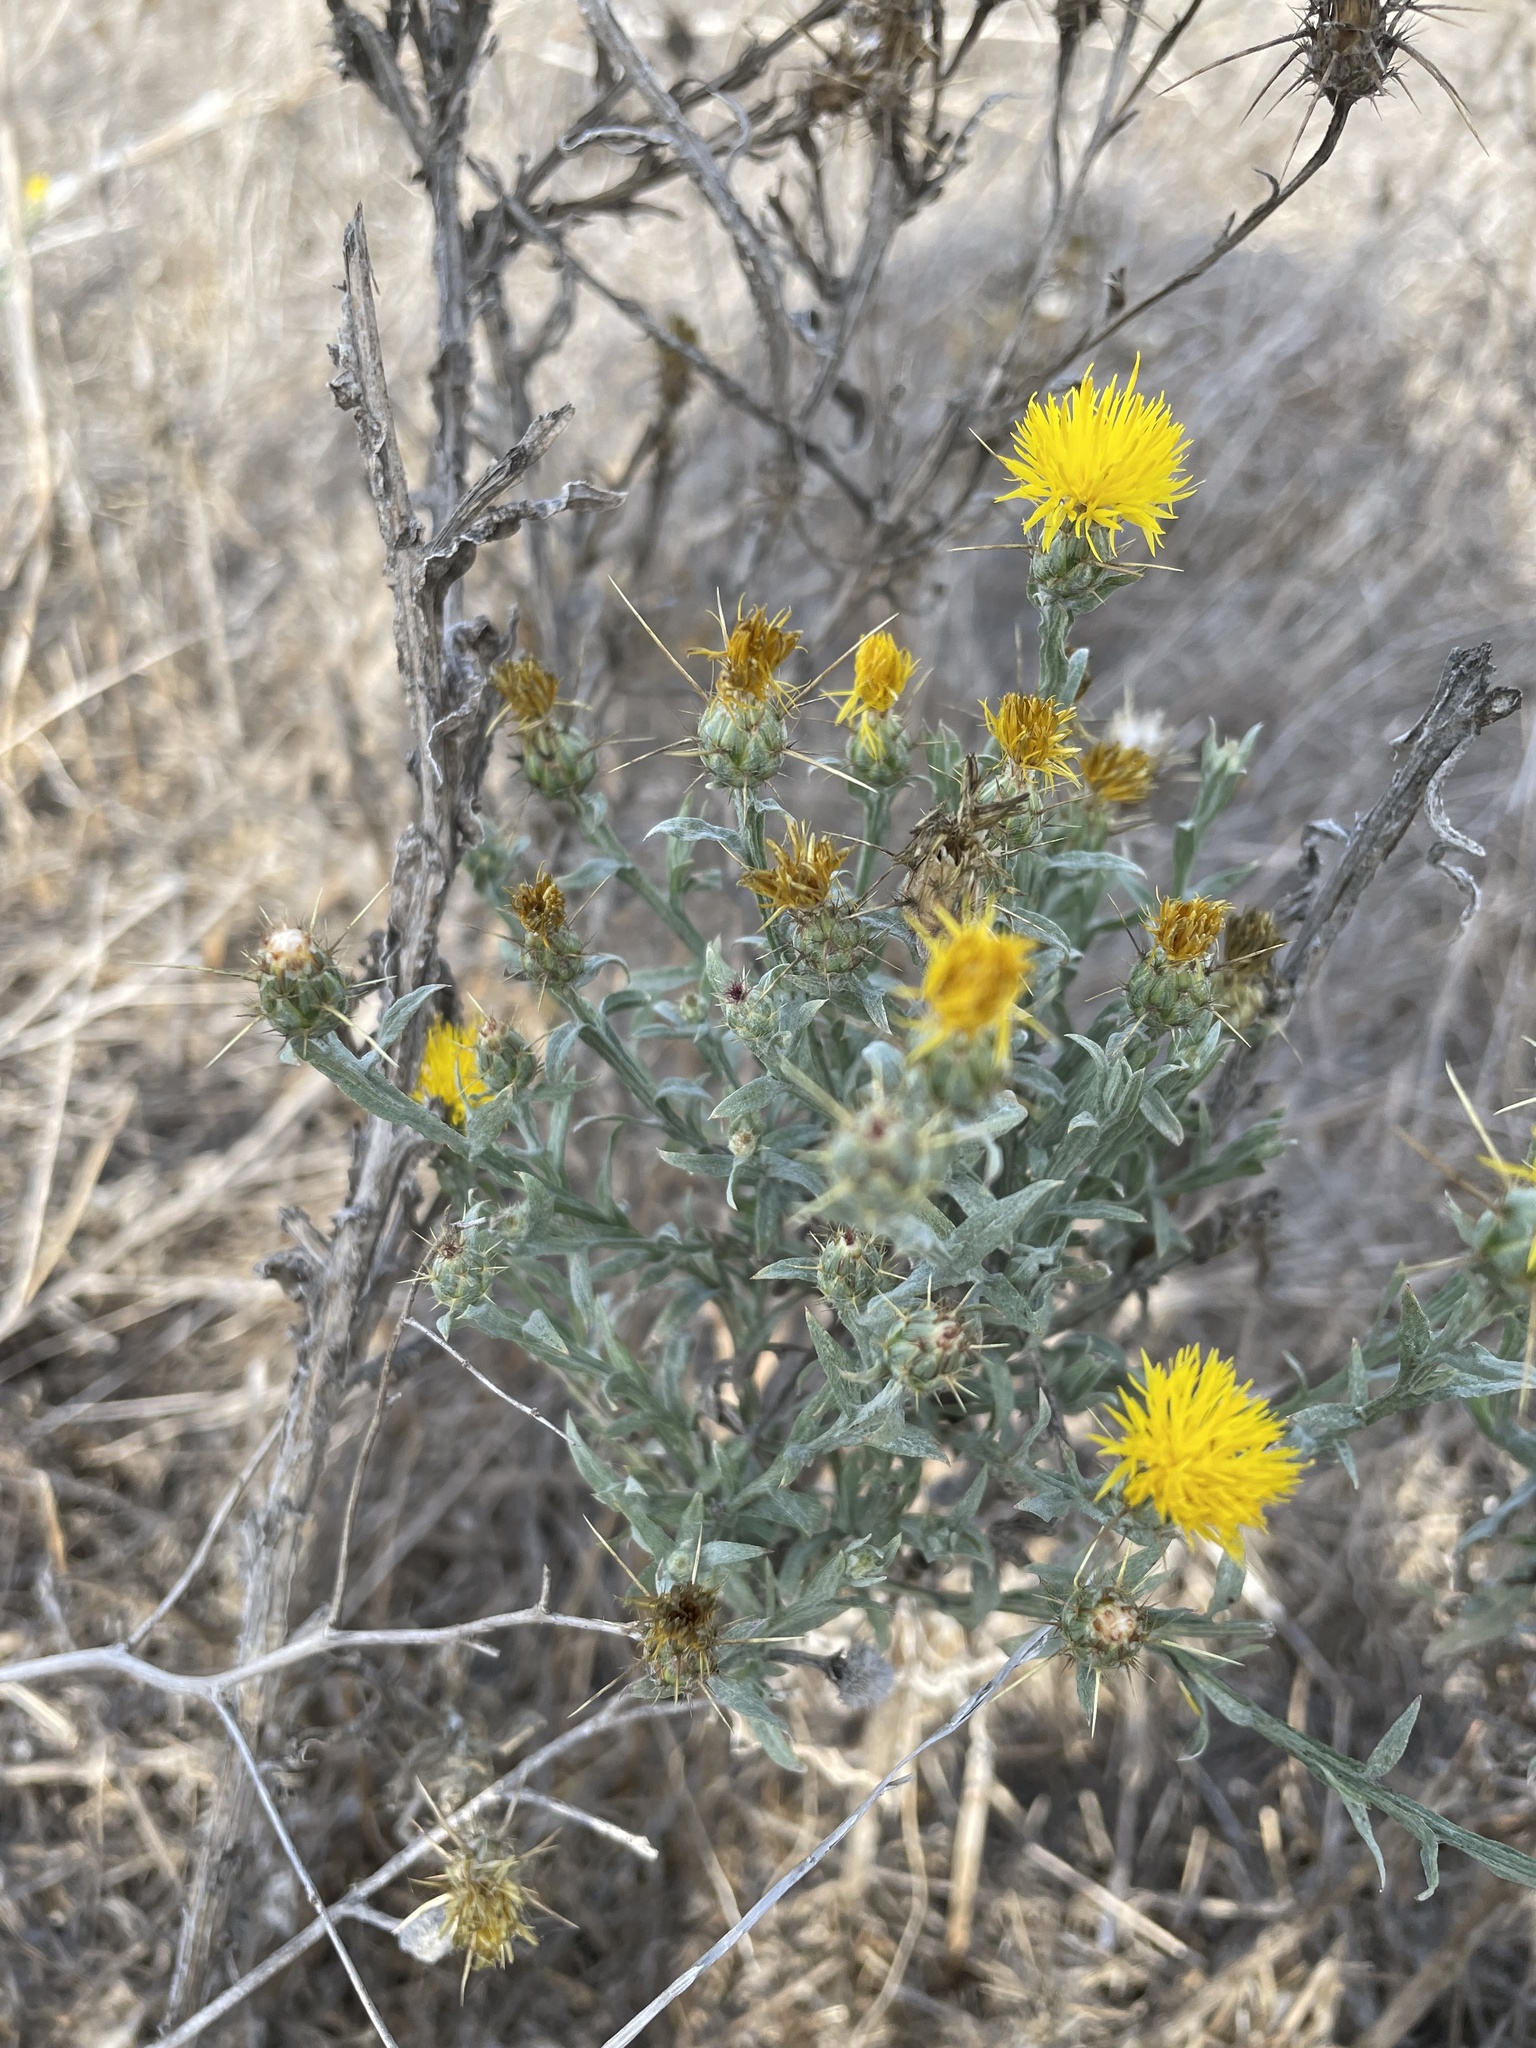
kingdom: Plantae
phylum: Tracheophyta
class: Magnoliopsida
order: Asterales
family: Asteraceae
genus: Centaurea
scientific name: Centaurea solstitialis
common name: Yellow star-thistle
